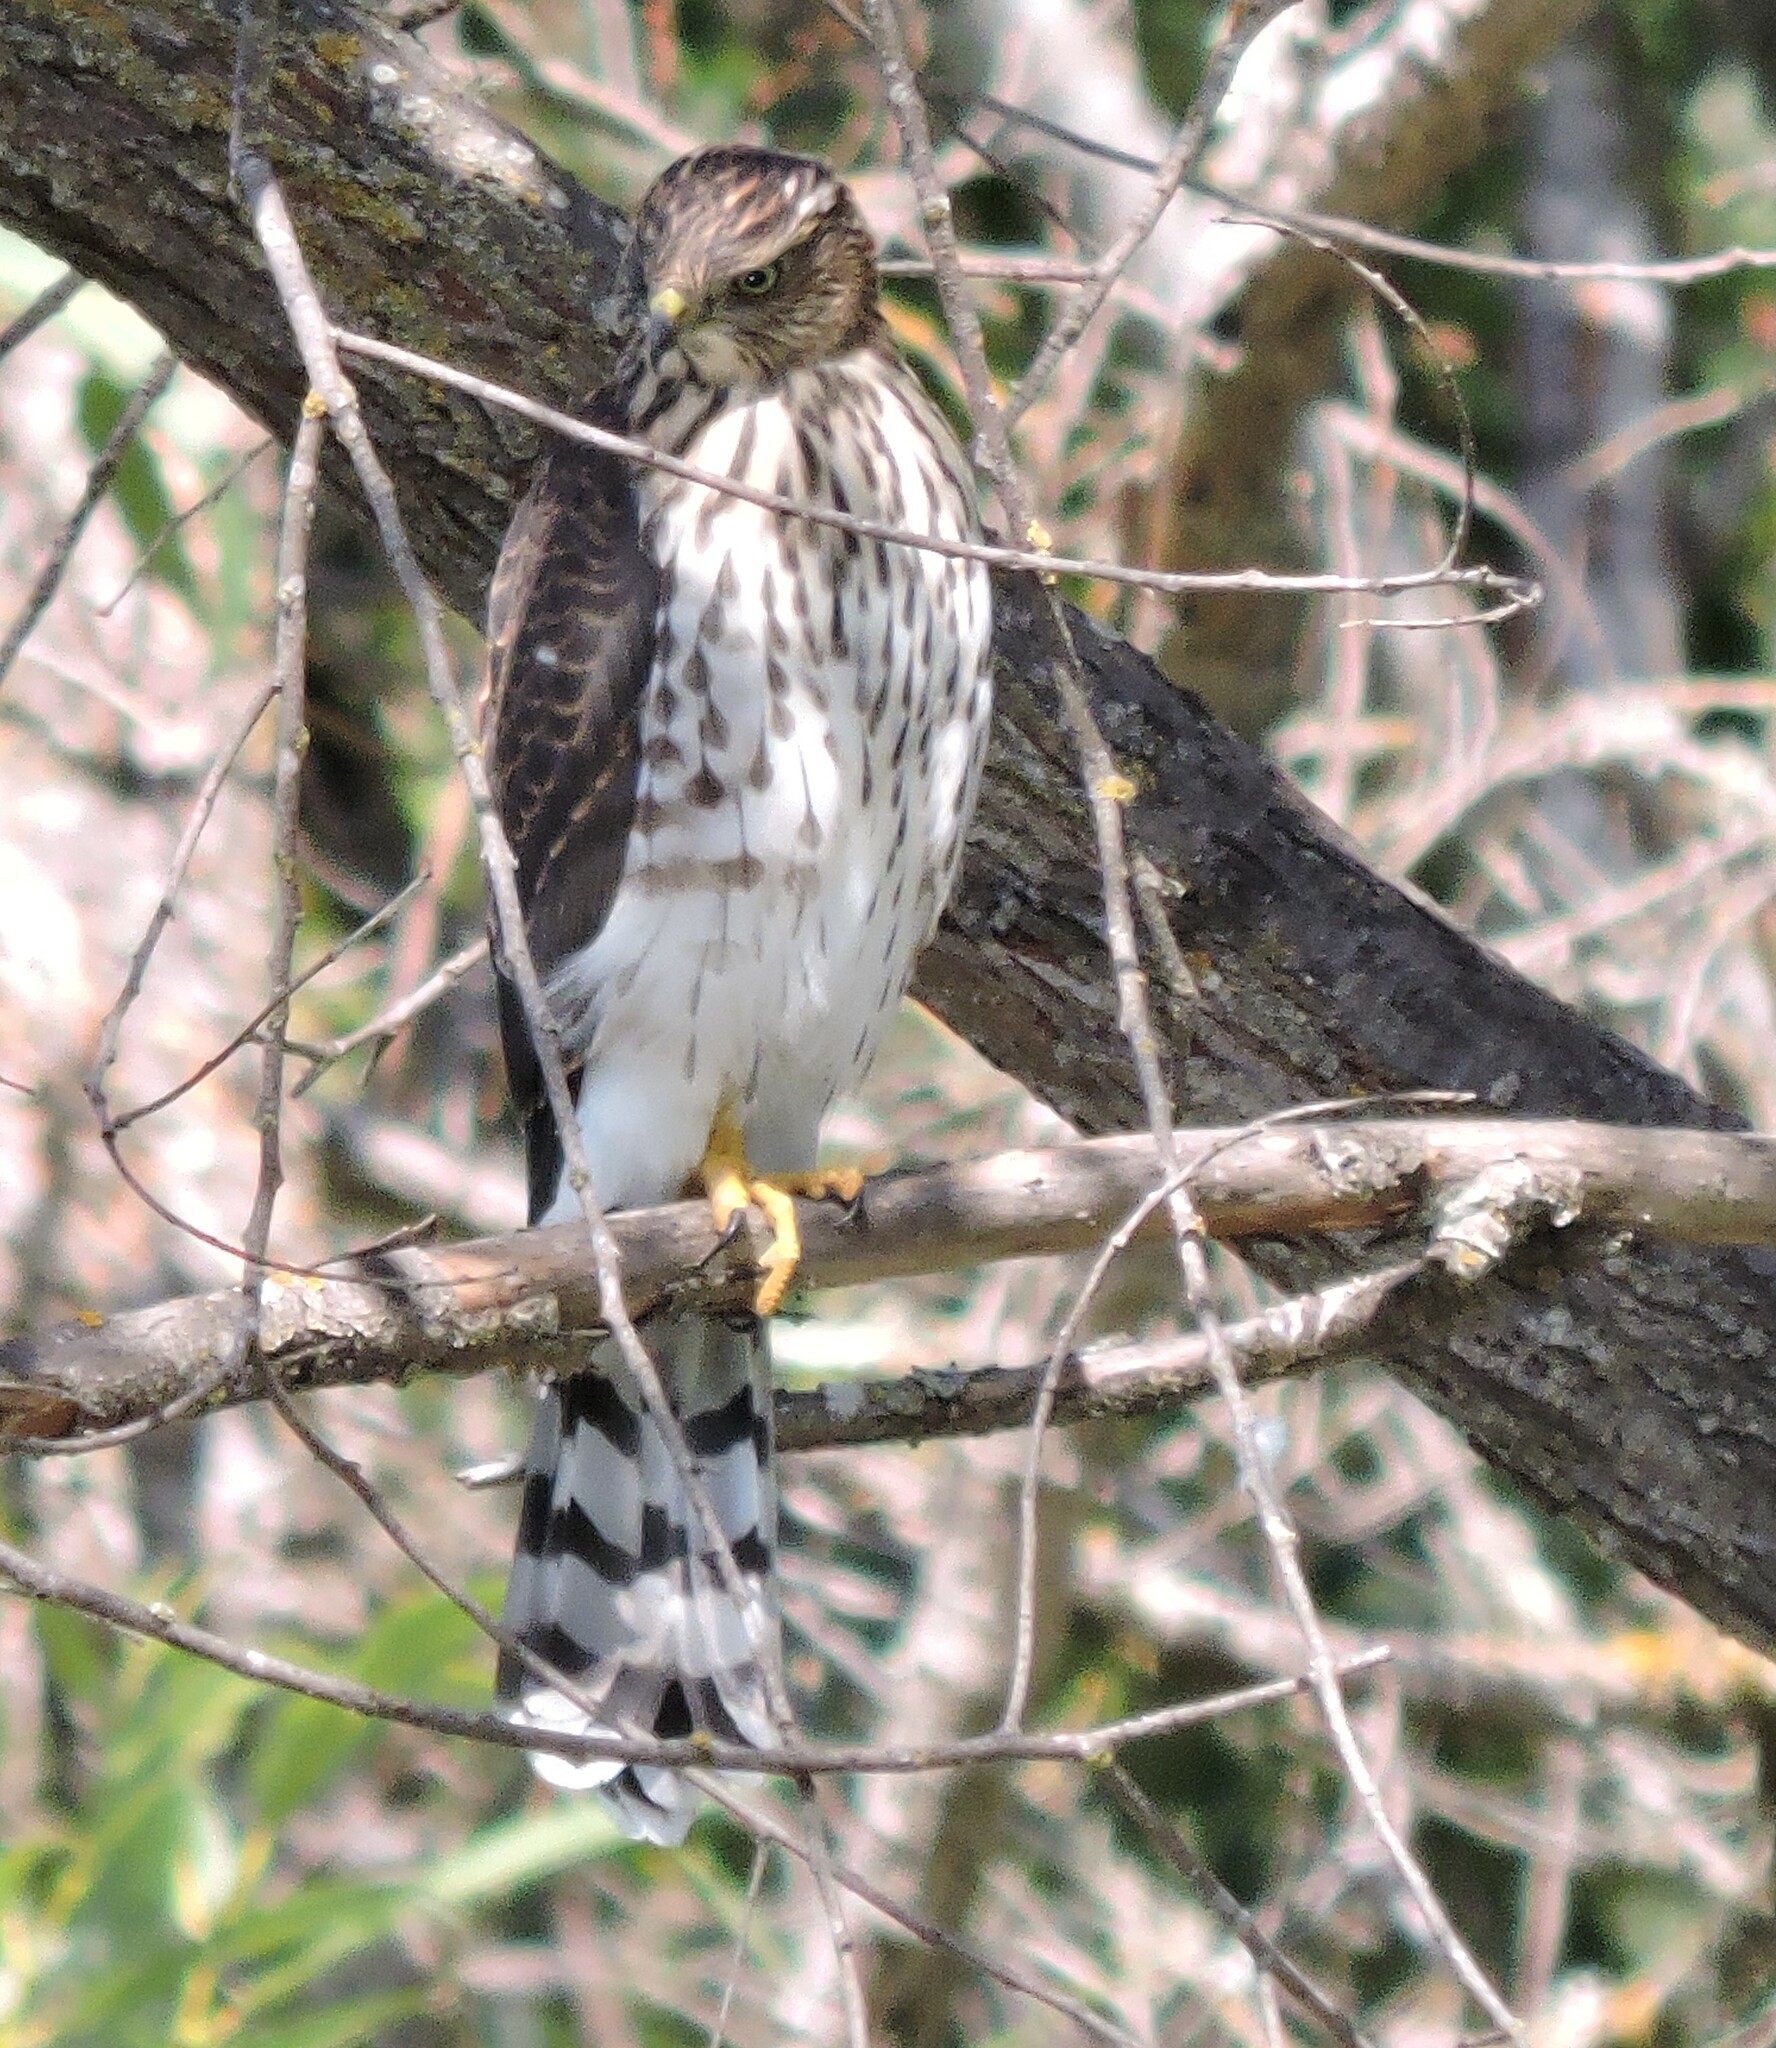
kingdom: Animalia
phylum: Chordata
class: Aves
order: Accipitriformes
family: Accipitridae
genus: Accipiter
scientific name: Accipiter cooperii
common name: Cooper's hawk
